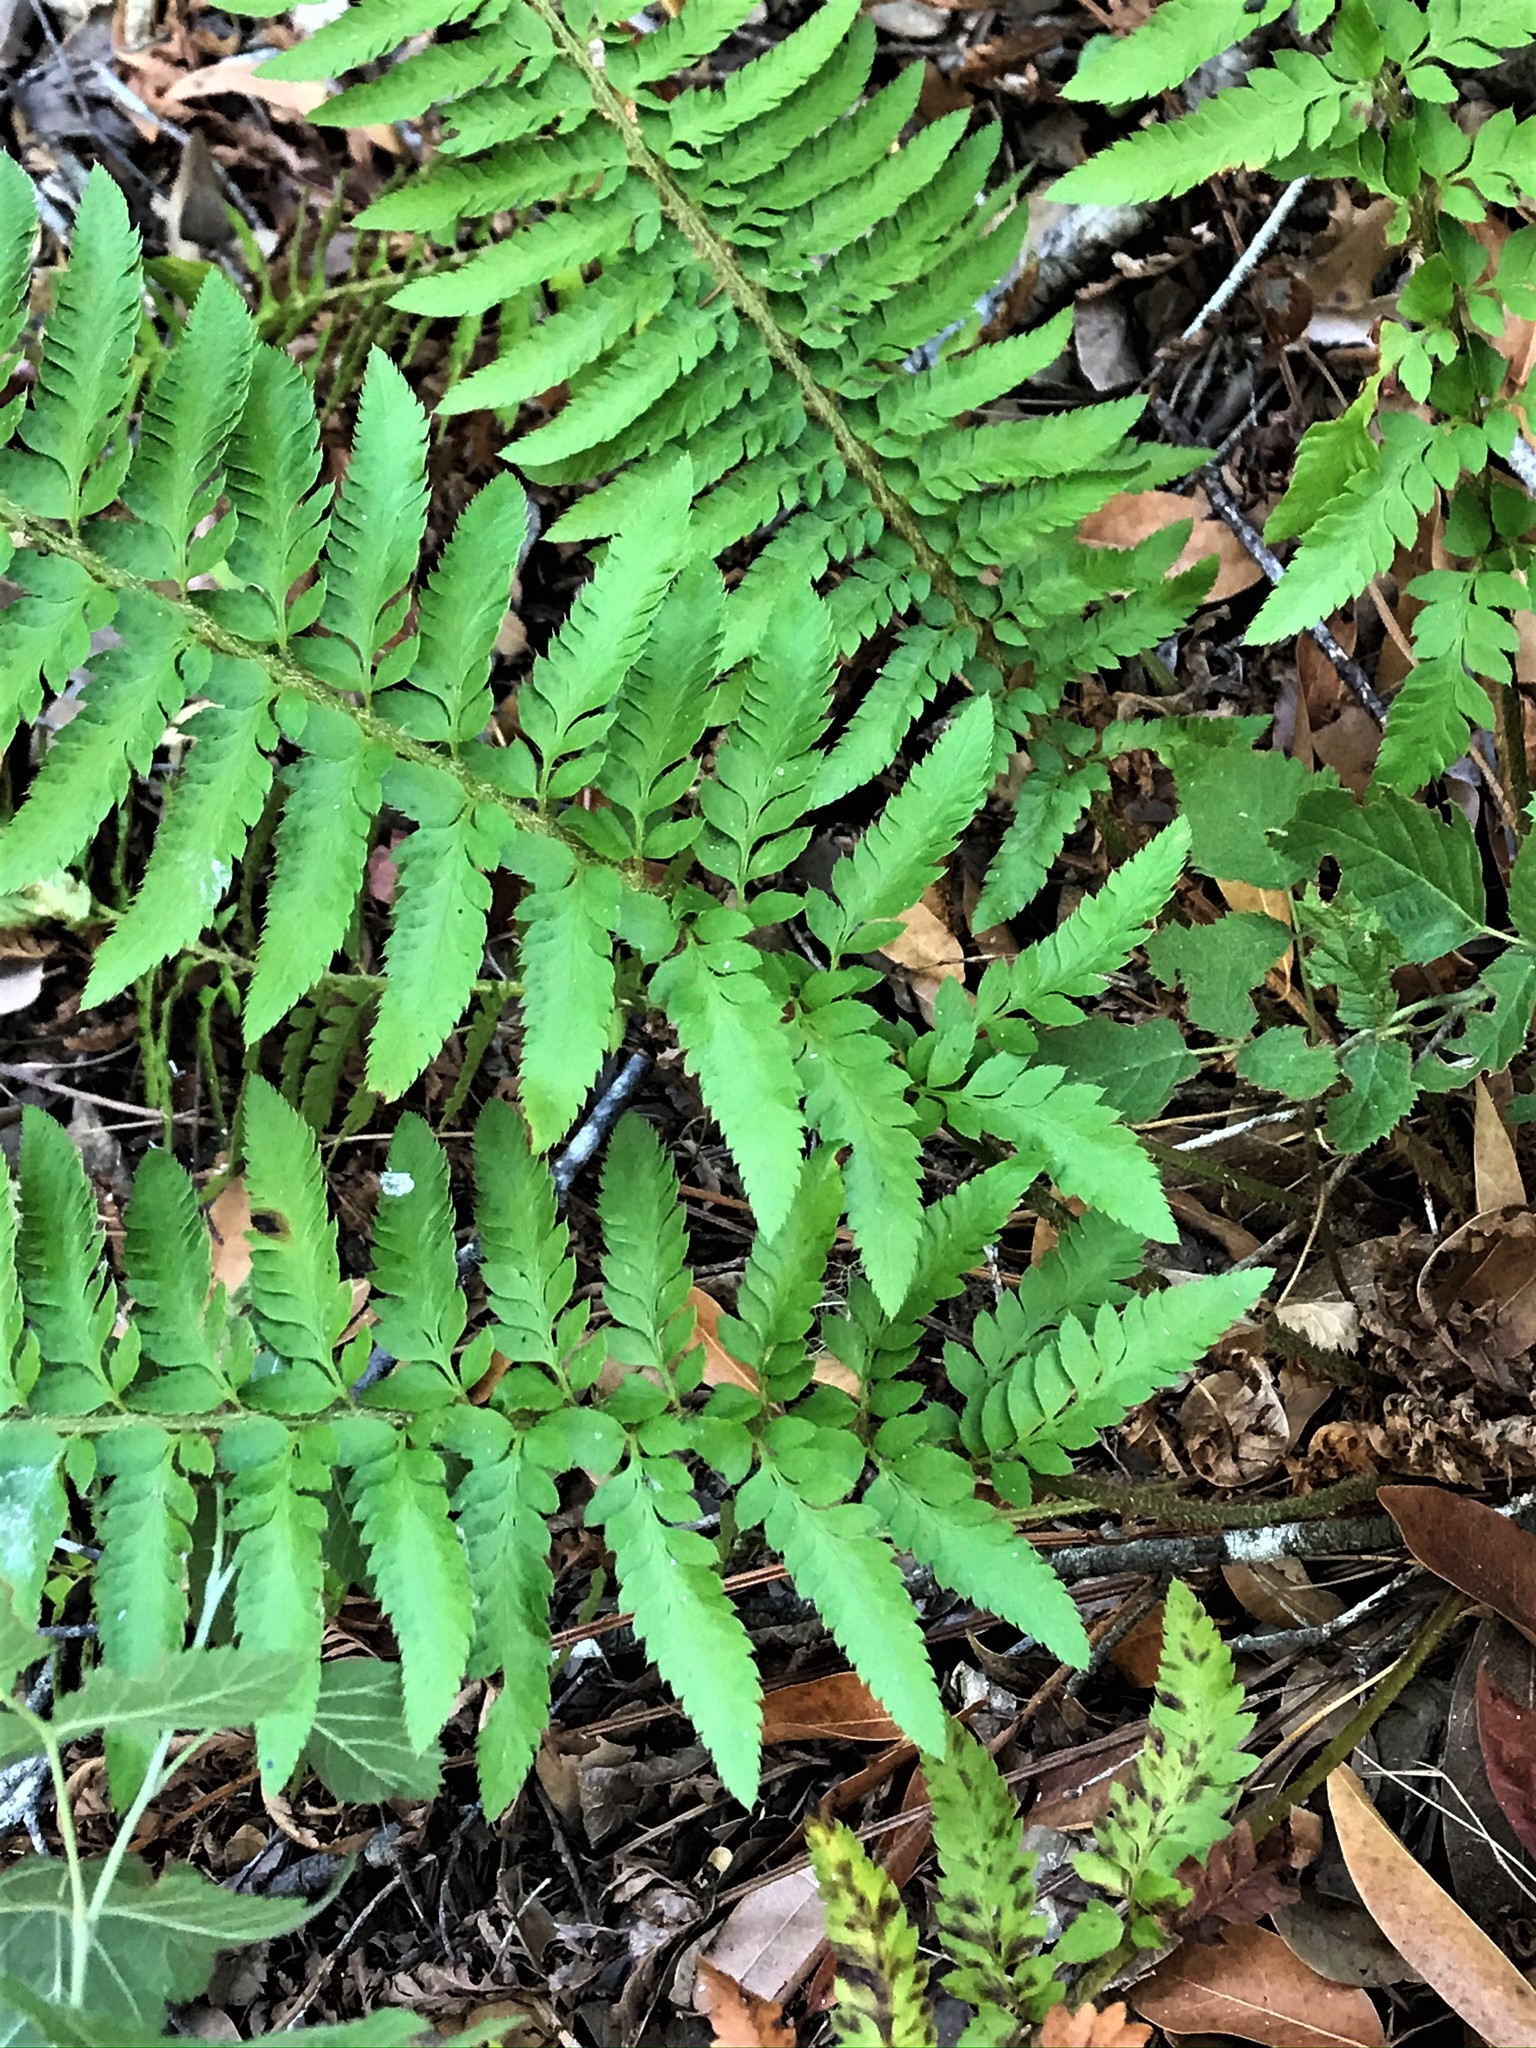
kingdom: Plantae
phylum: Tracheophyta
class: Polypodiopsida
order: Polypodiales
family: Dryopteridaceae
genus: Polystichum
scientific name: Polystichum californicum
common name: California sword fern
